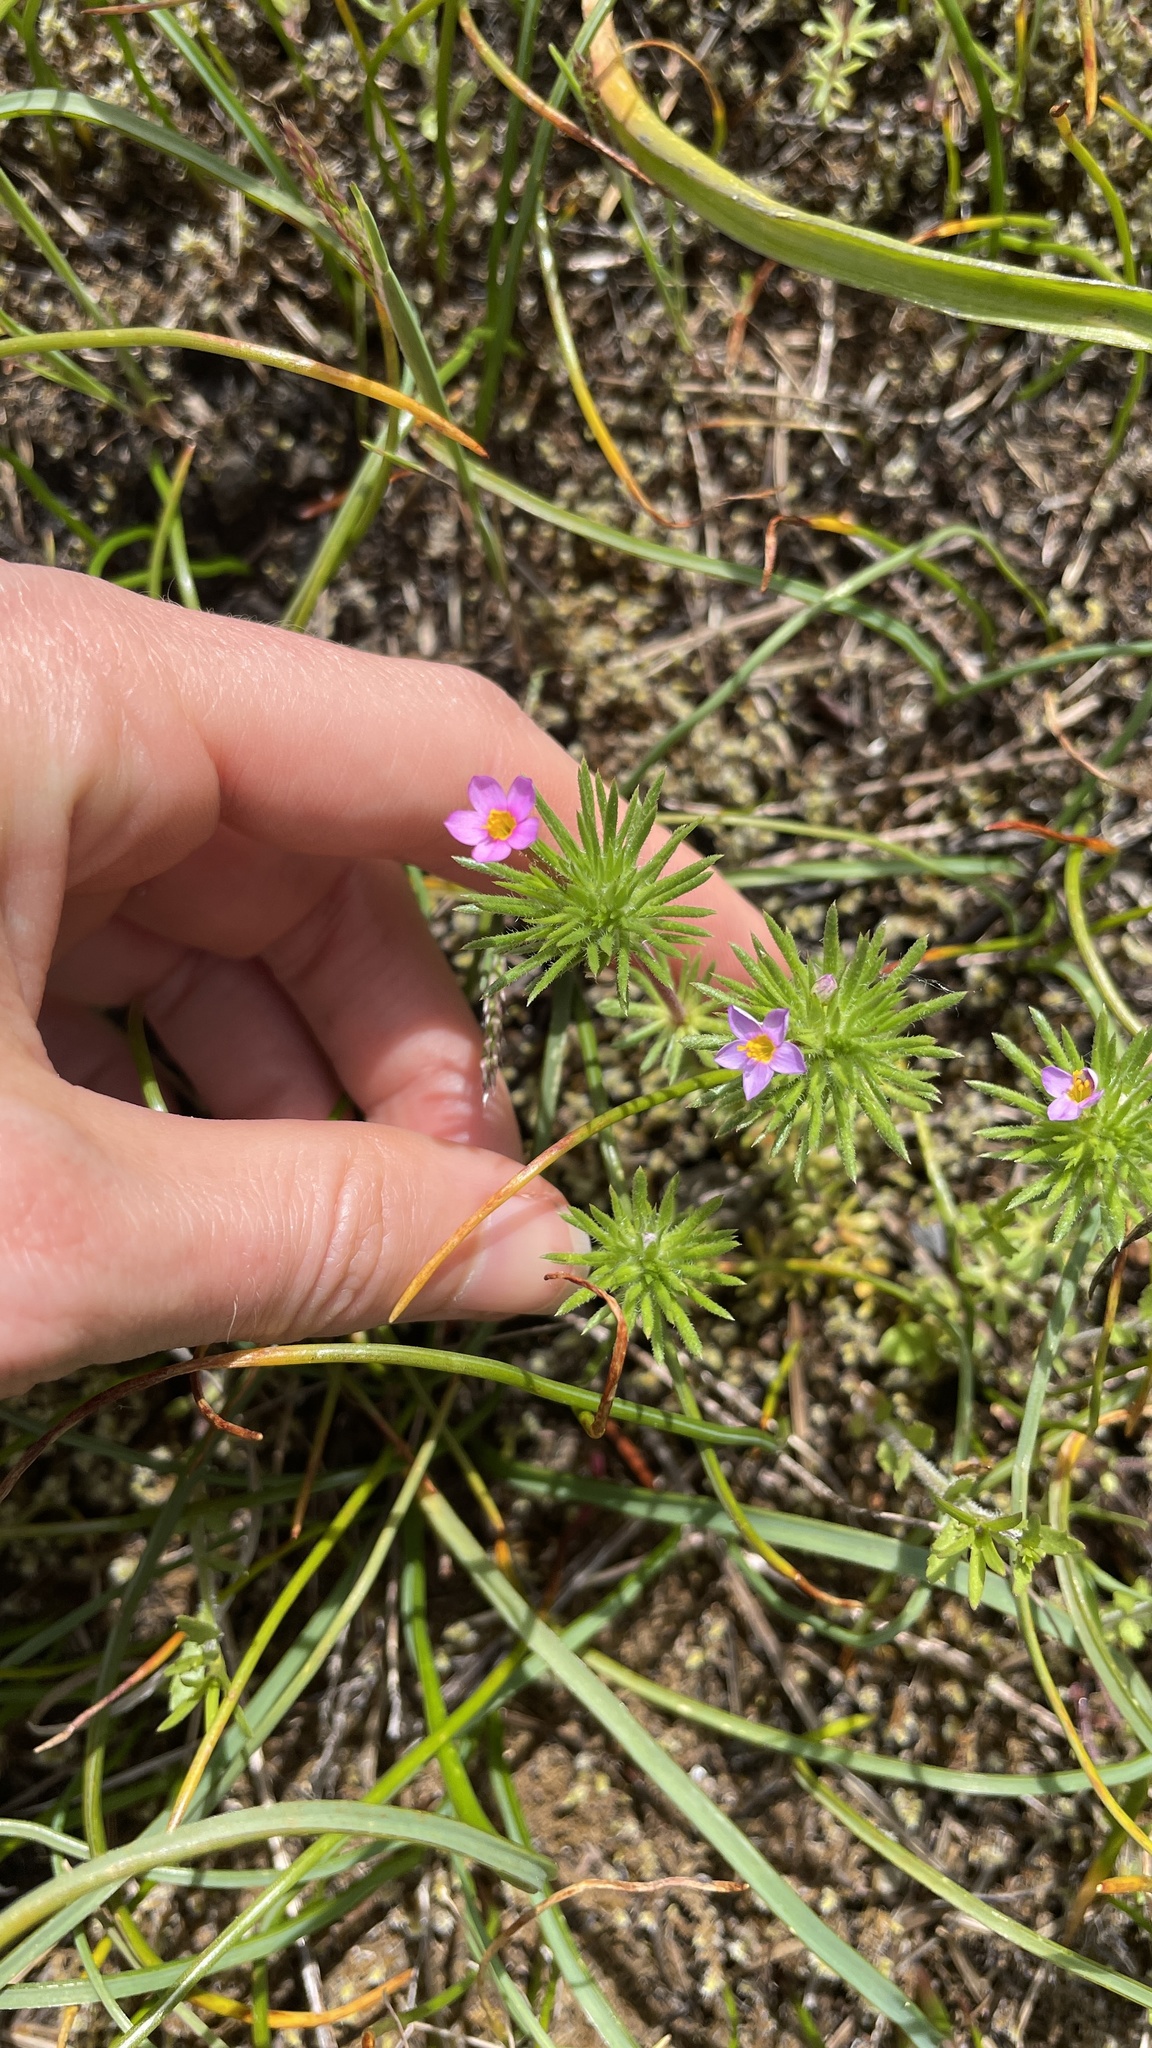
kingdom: Plantae
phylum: Tracheophyta
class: Magnoliopsida
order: Ericales
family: Polemoniaceae
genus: Leptosiphon
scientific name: Leptosiphon bicolor
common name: True babystars
